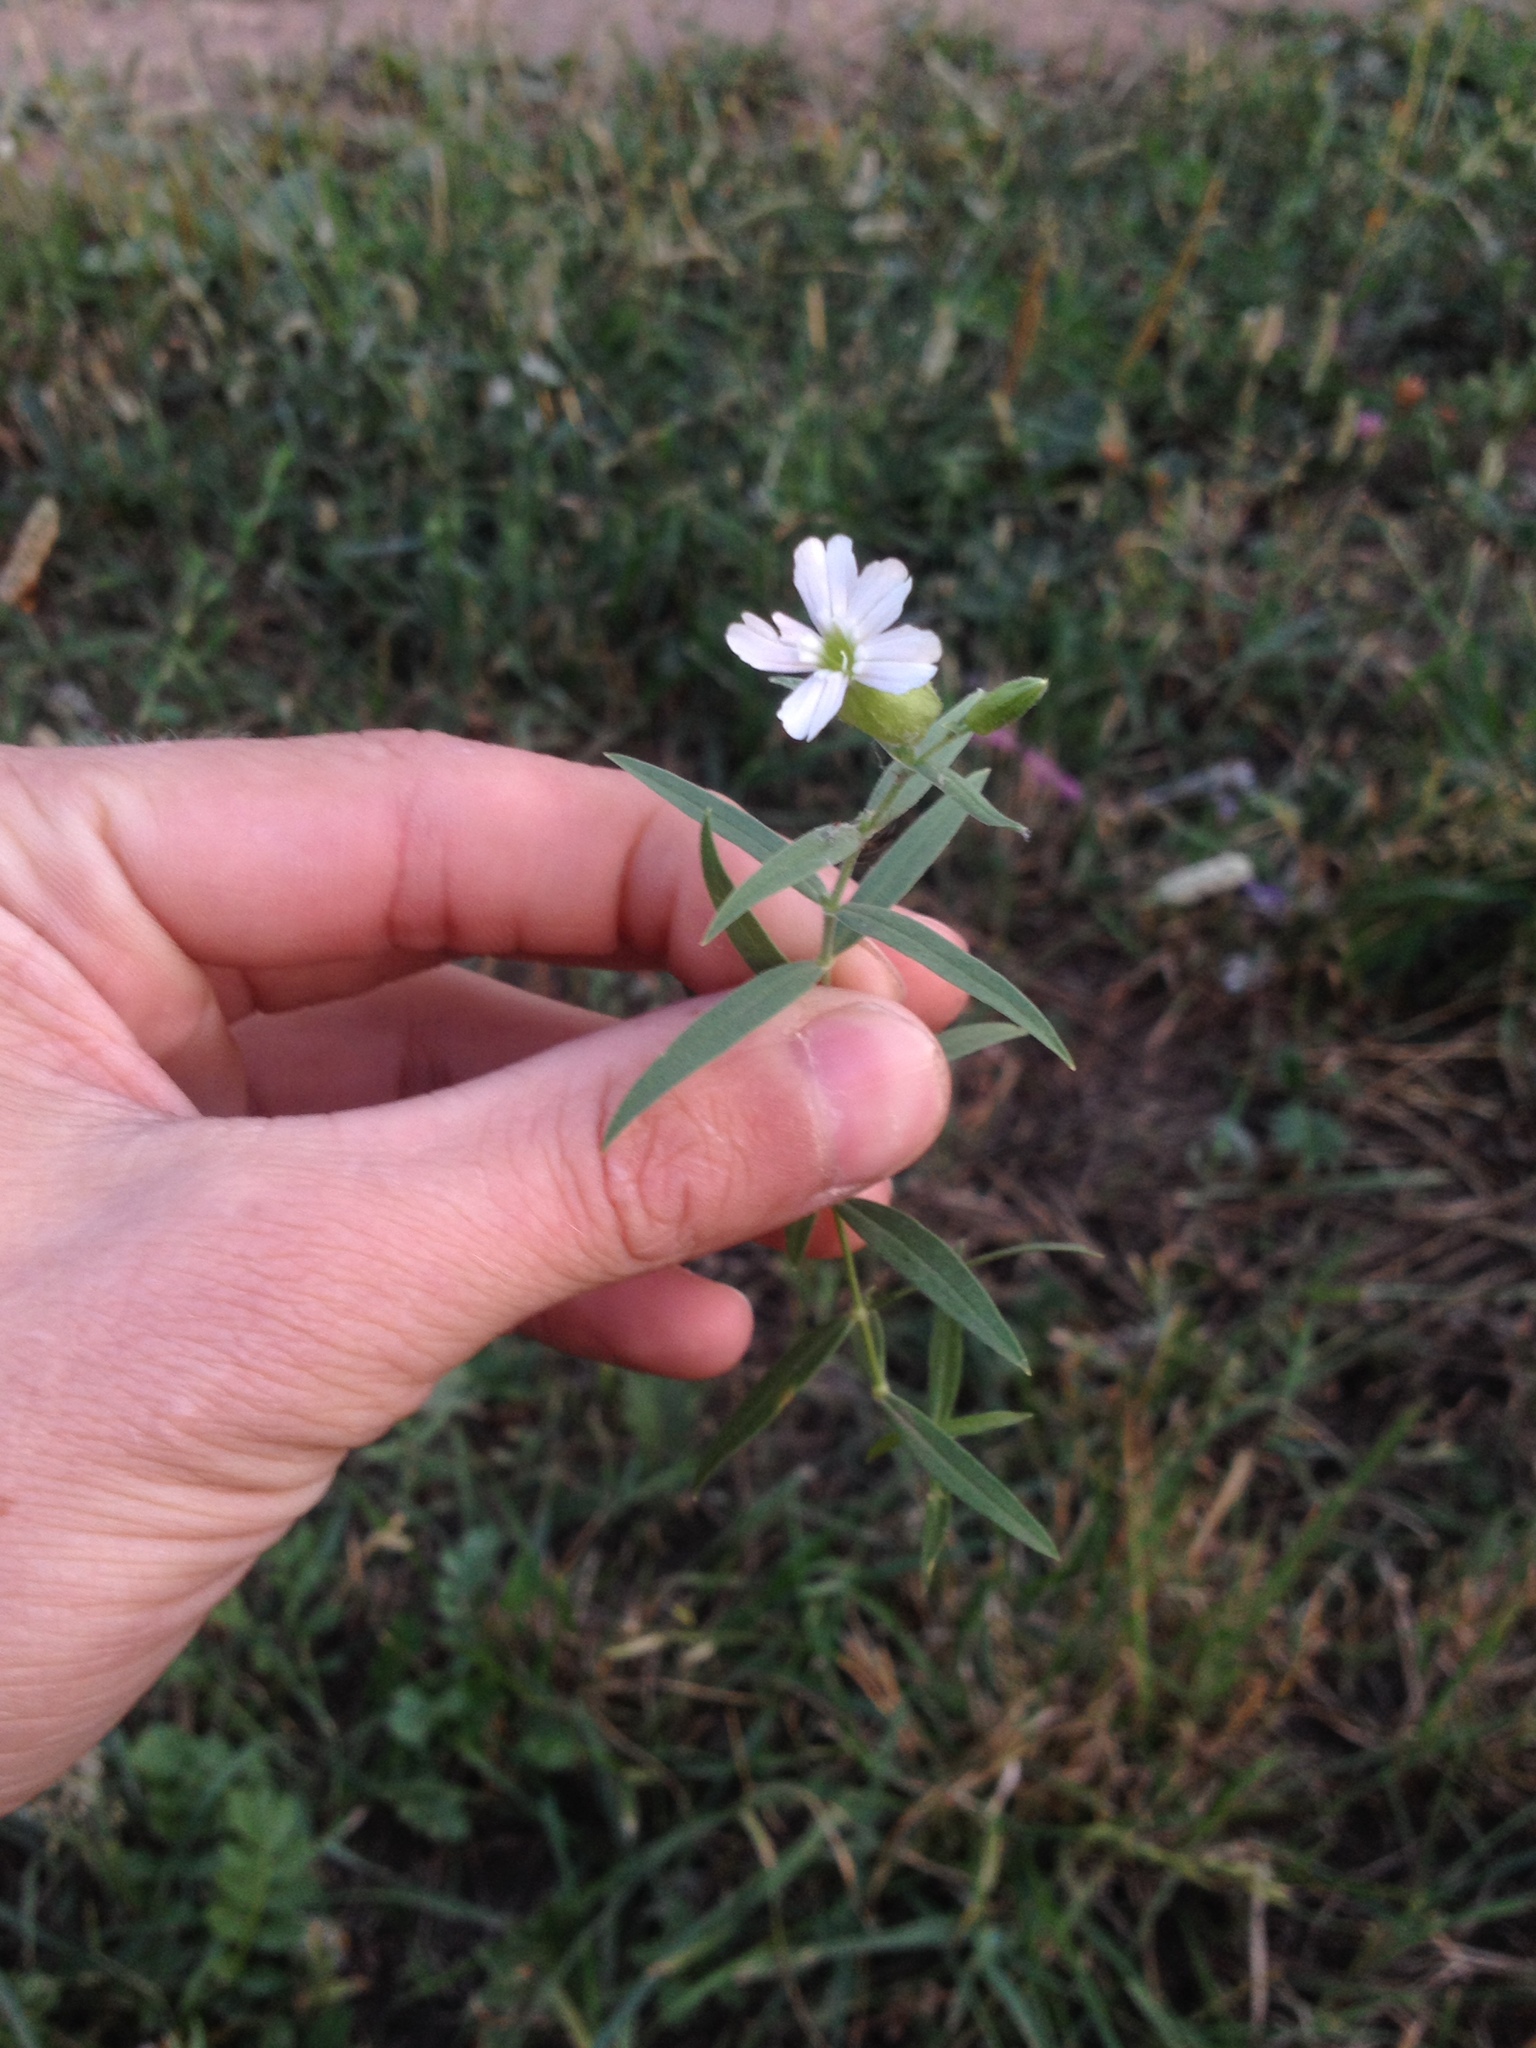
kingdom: Plantae
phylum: Tracheophyta
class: Magnoliopsida
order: Caryophyllales
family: Caryophyllaceae
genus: Silene
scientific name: Silene procumbens
